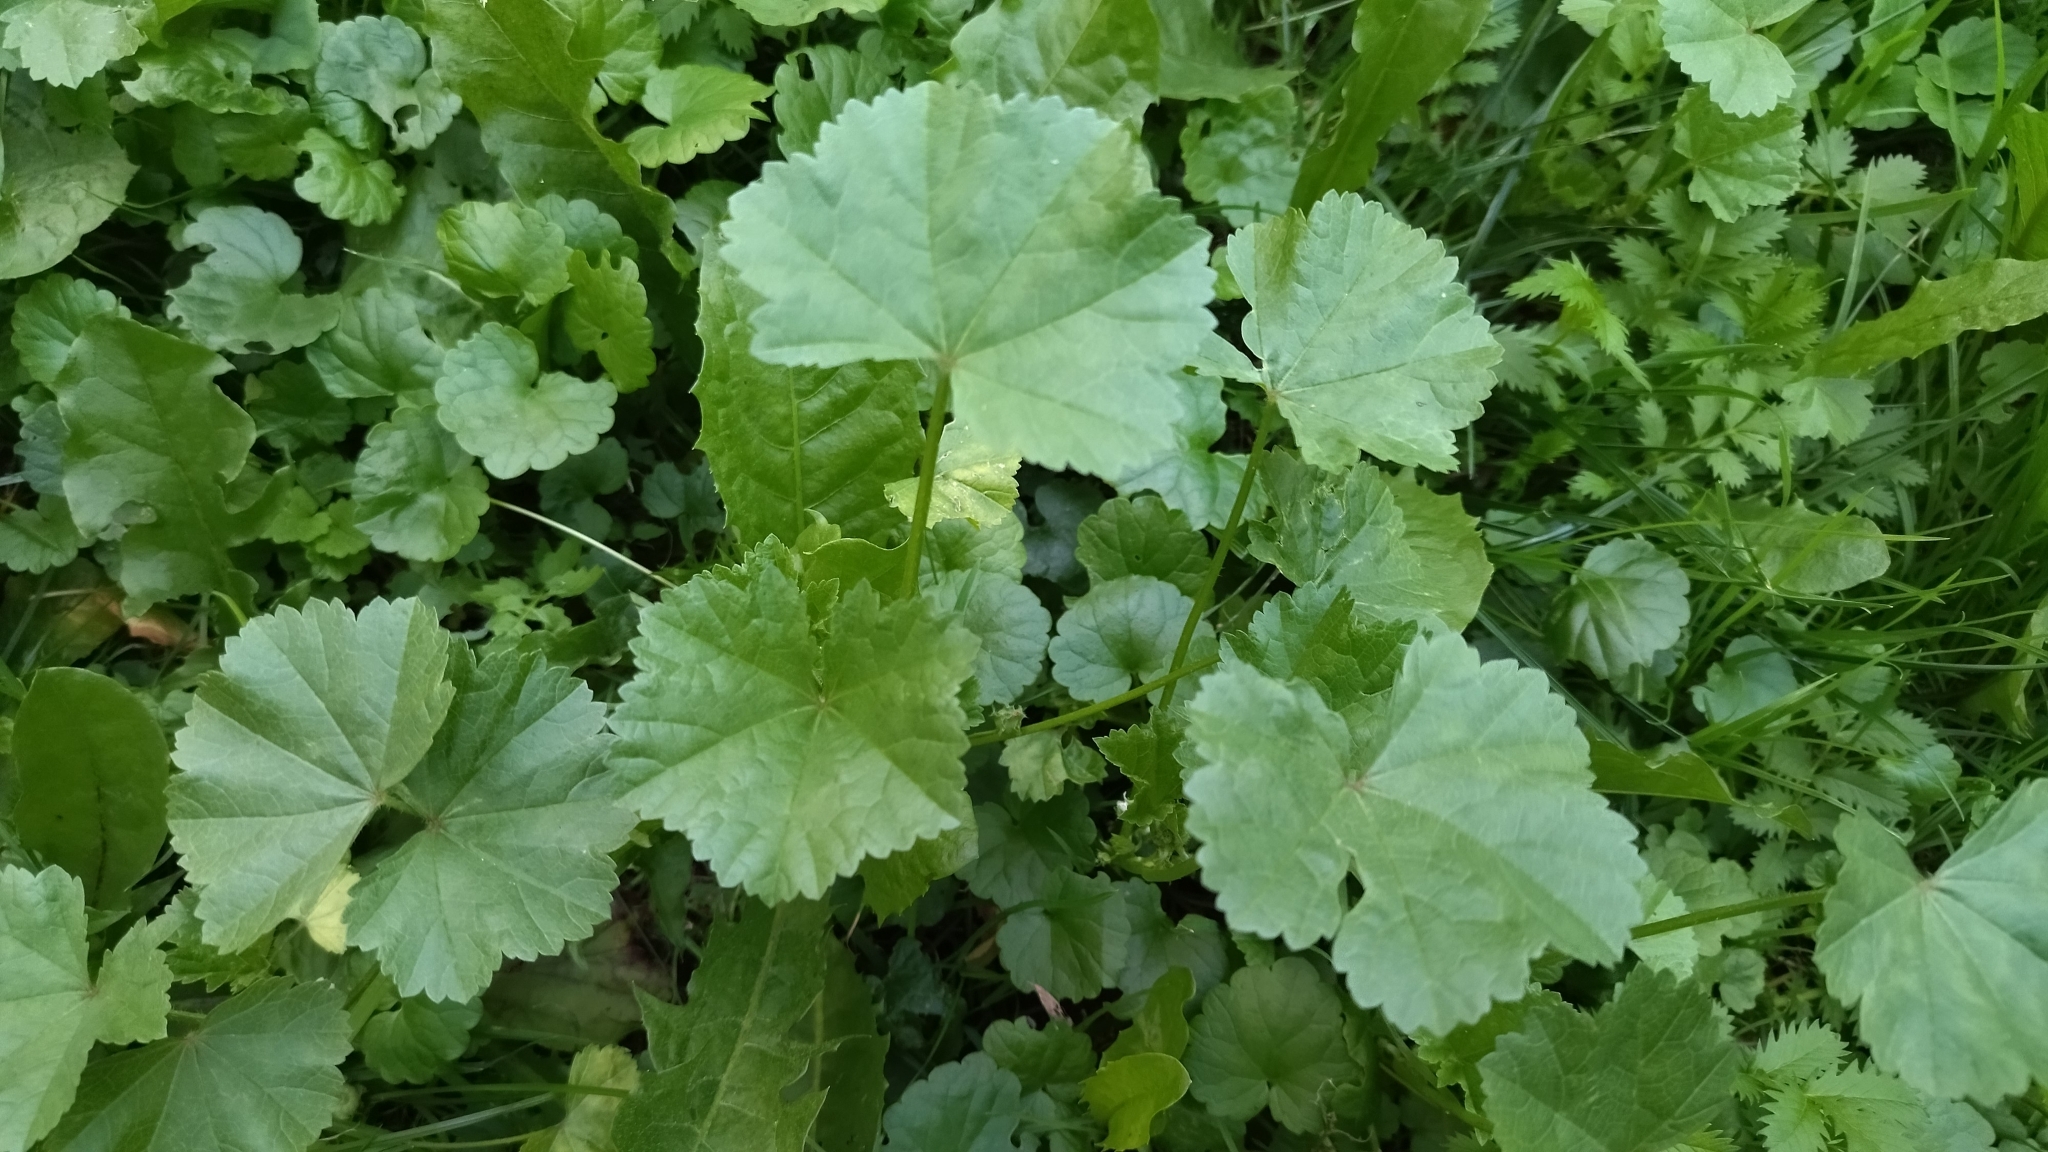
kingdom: Plantae
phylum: Tracheophyta
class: Magnoliopsida
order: Malvales
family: Malvaceae
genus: Malva
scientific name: Malva pusilla
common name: Small mallow
